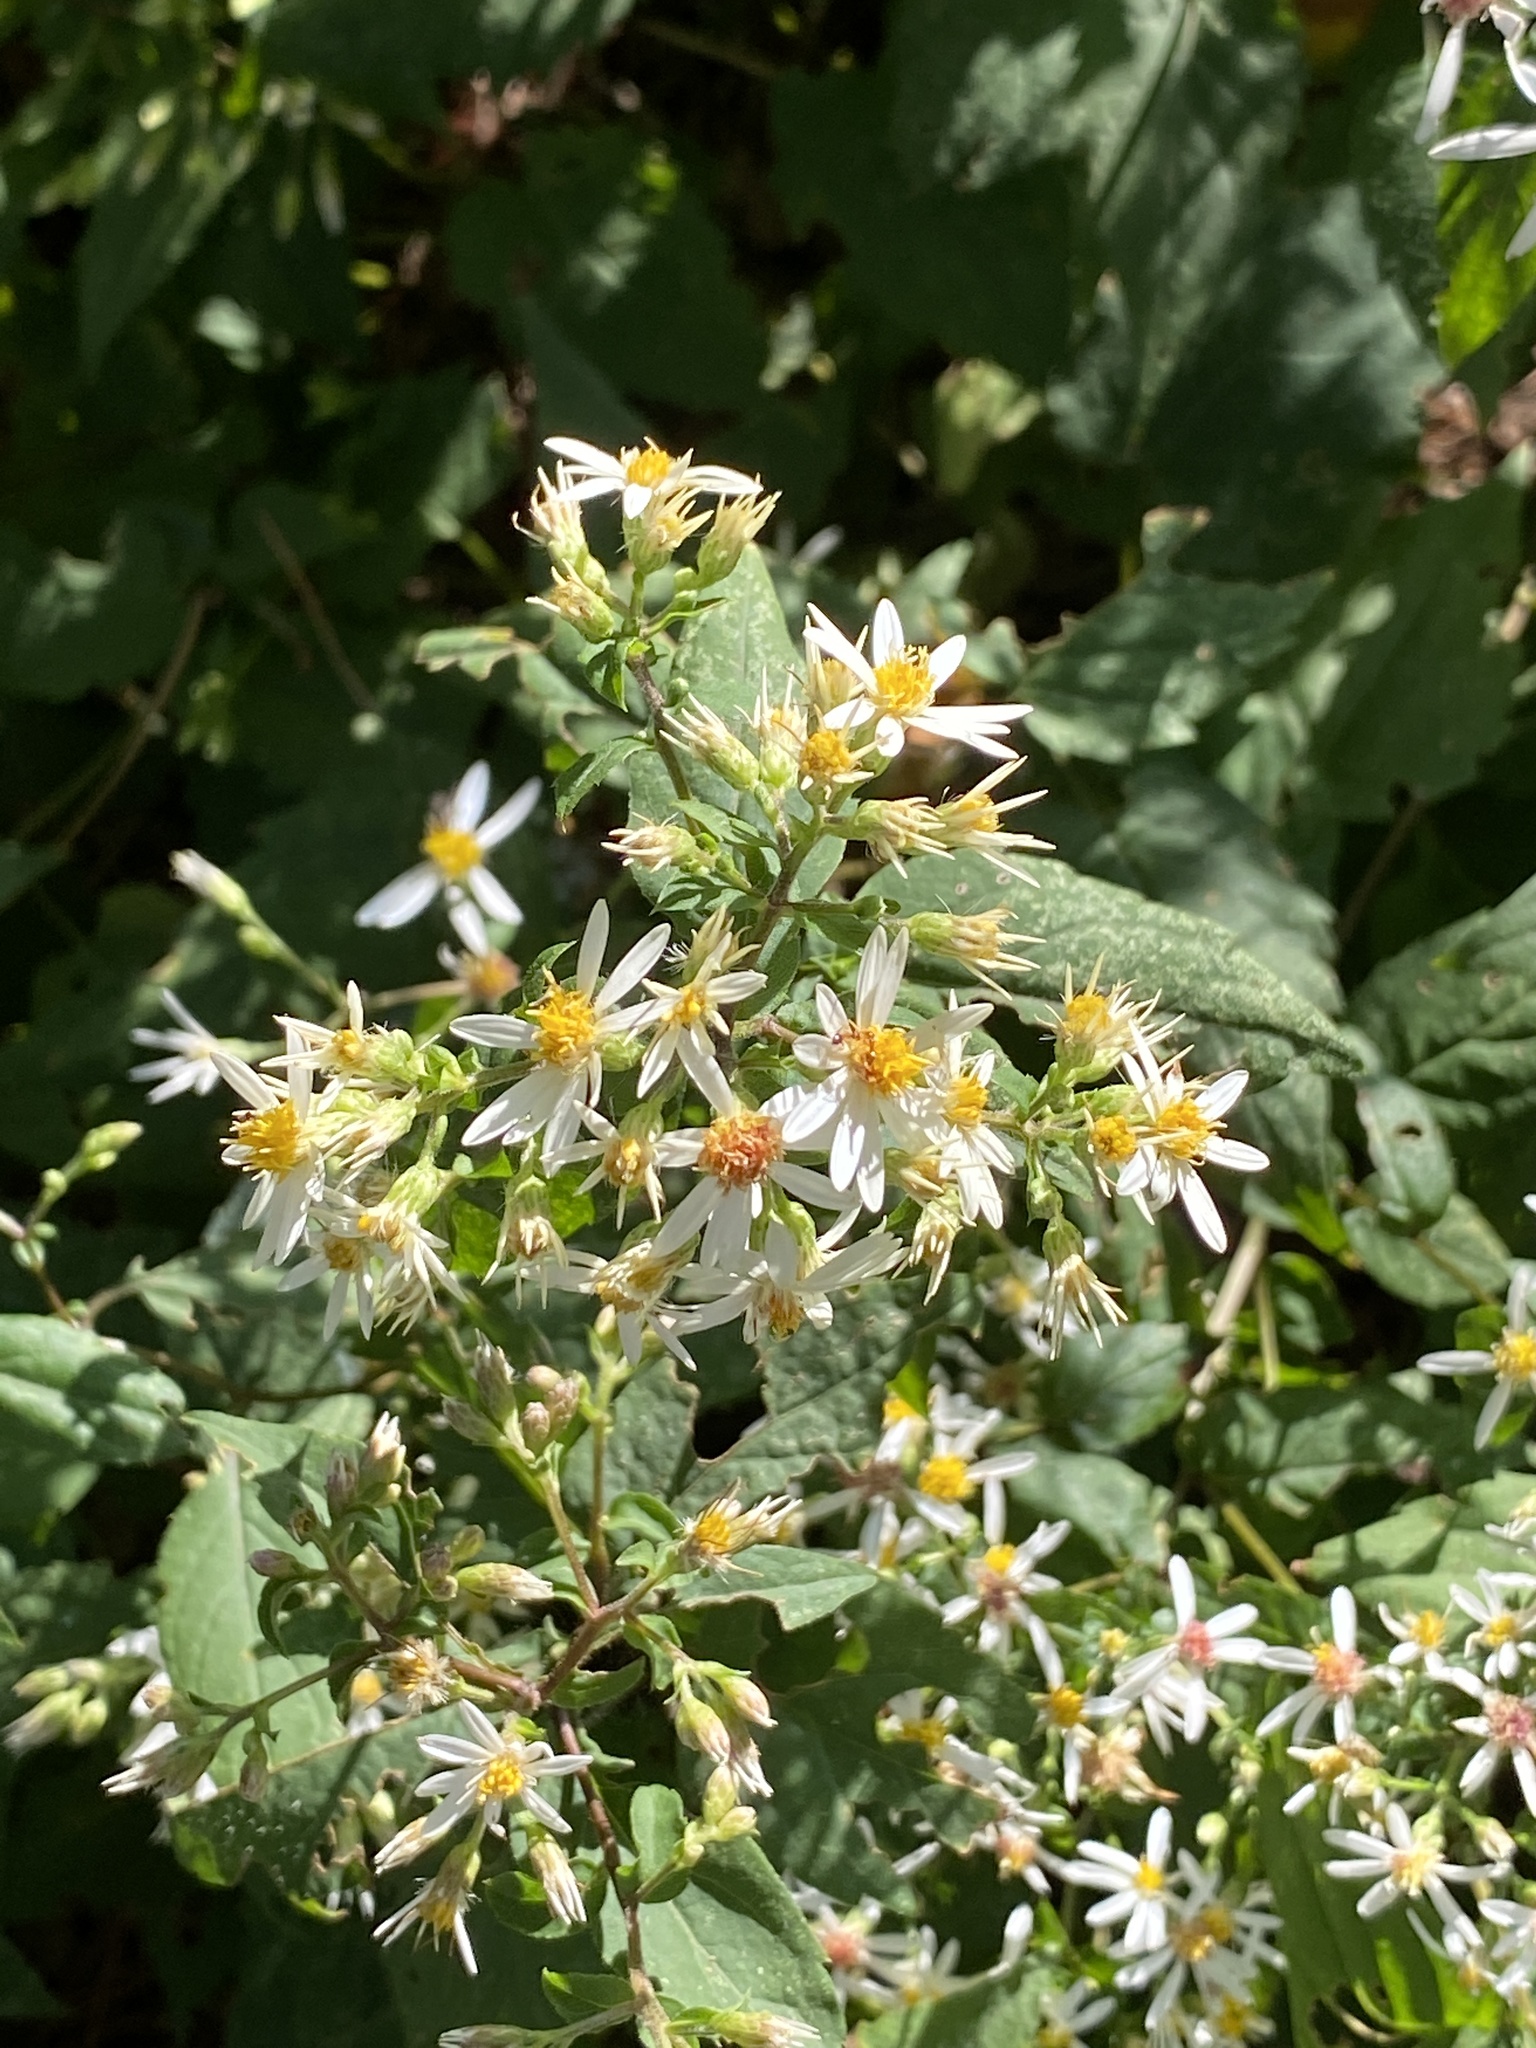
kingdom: Plantae
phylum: Tracheophyta
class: Magnoliopsida
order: Asterales
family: Asteraceae
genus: Eurybia
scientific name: Eurybia divaricata
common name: White wood aster
